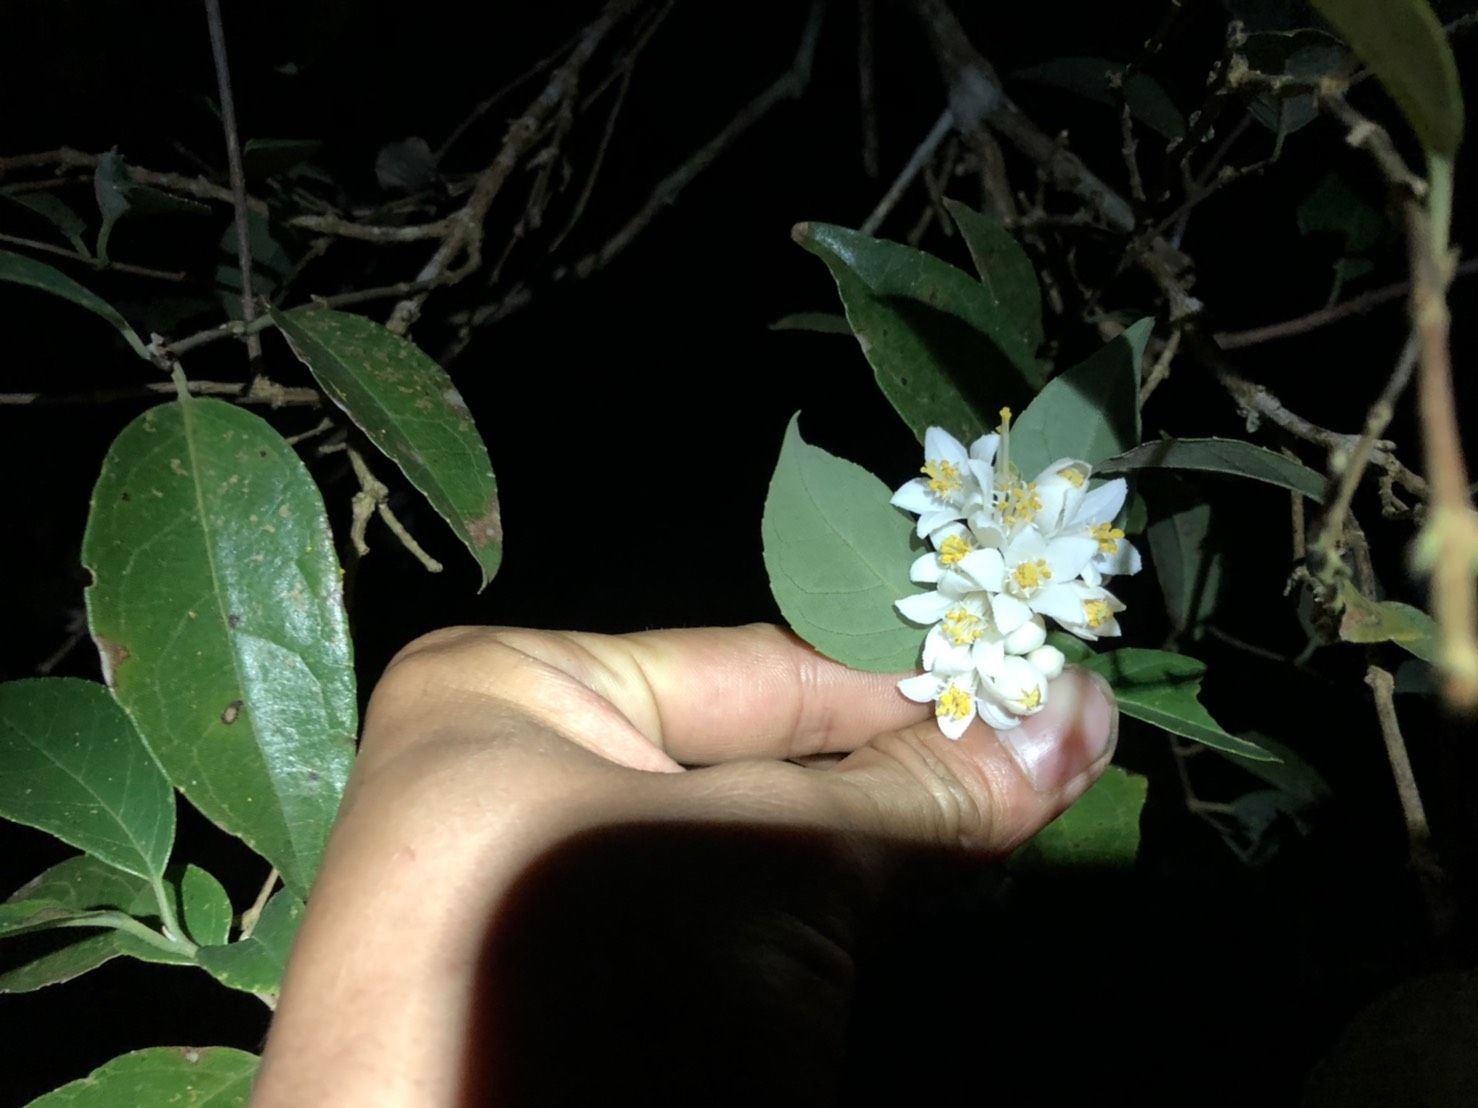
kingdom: Plantae
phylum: Tracheophyta
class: Magnoliopsida
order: Cornales
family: Hydrangeaceae
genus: Deutzia
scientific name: Deutzia pulchra
